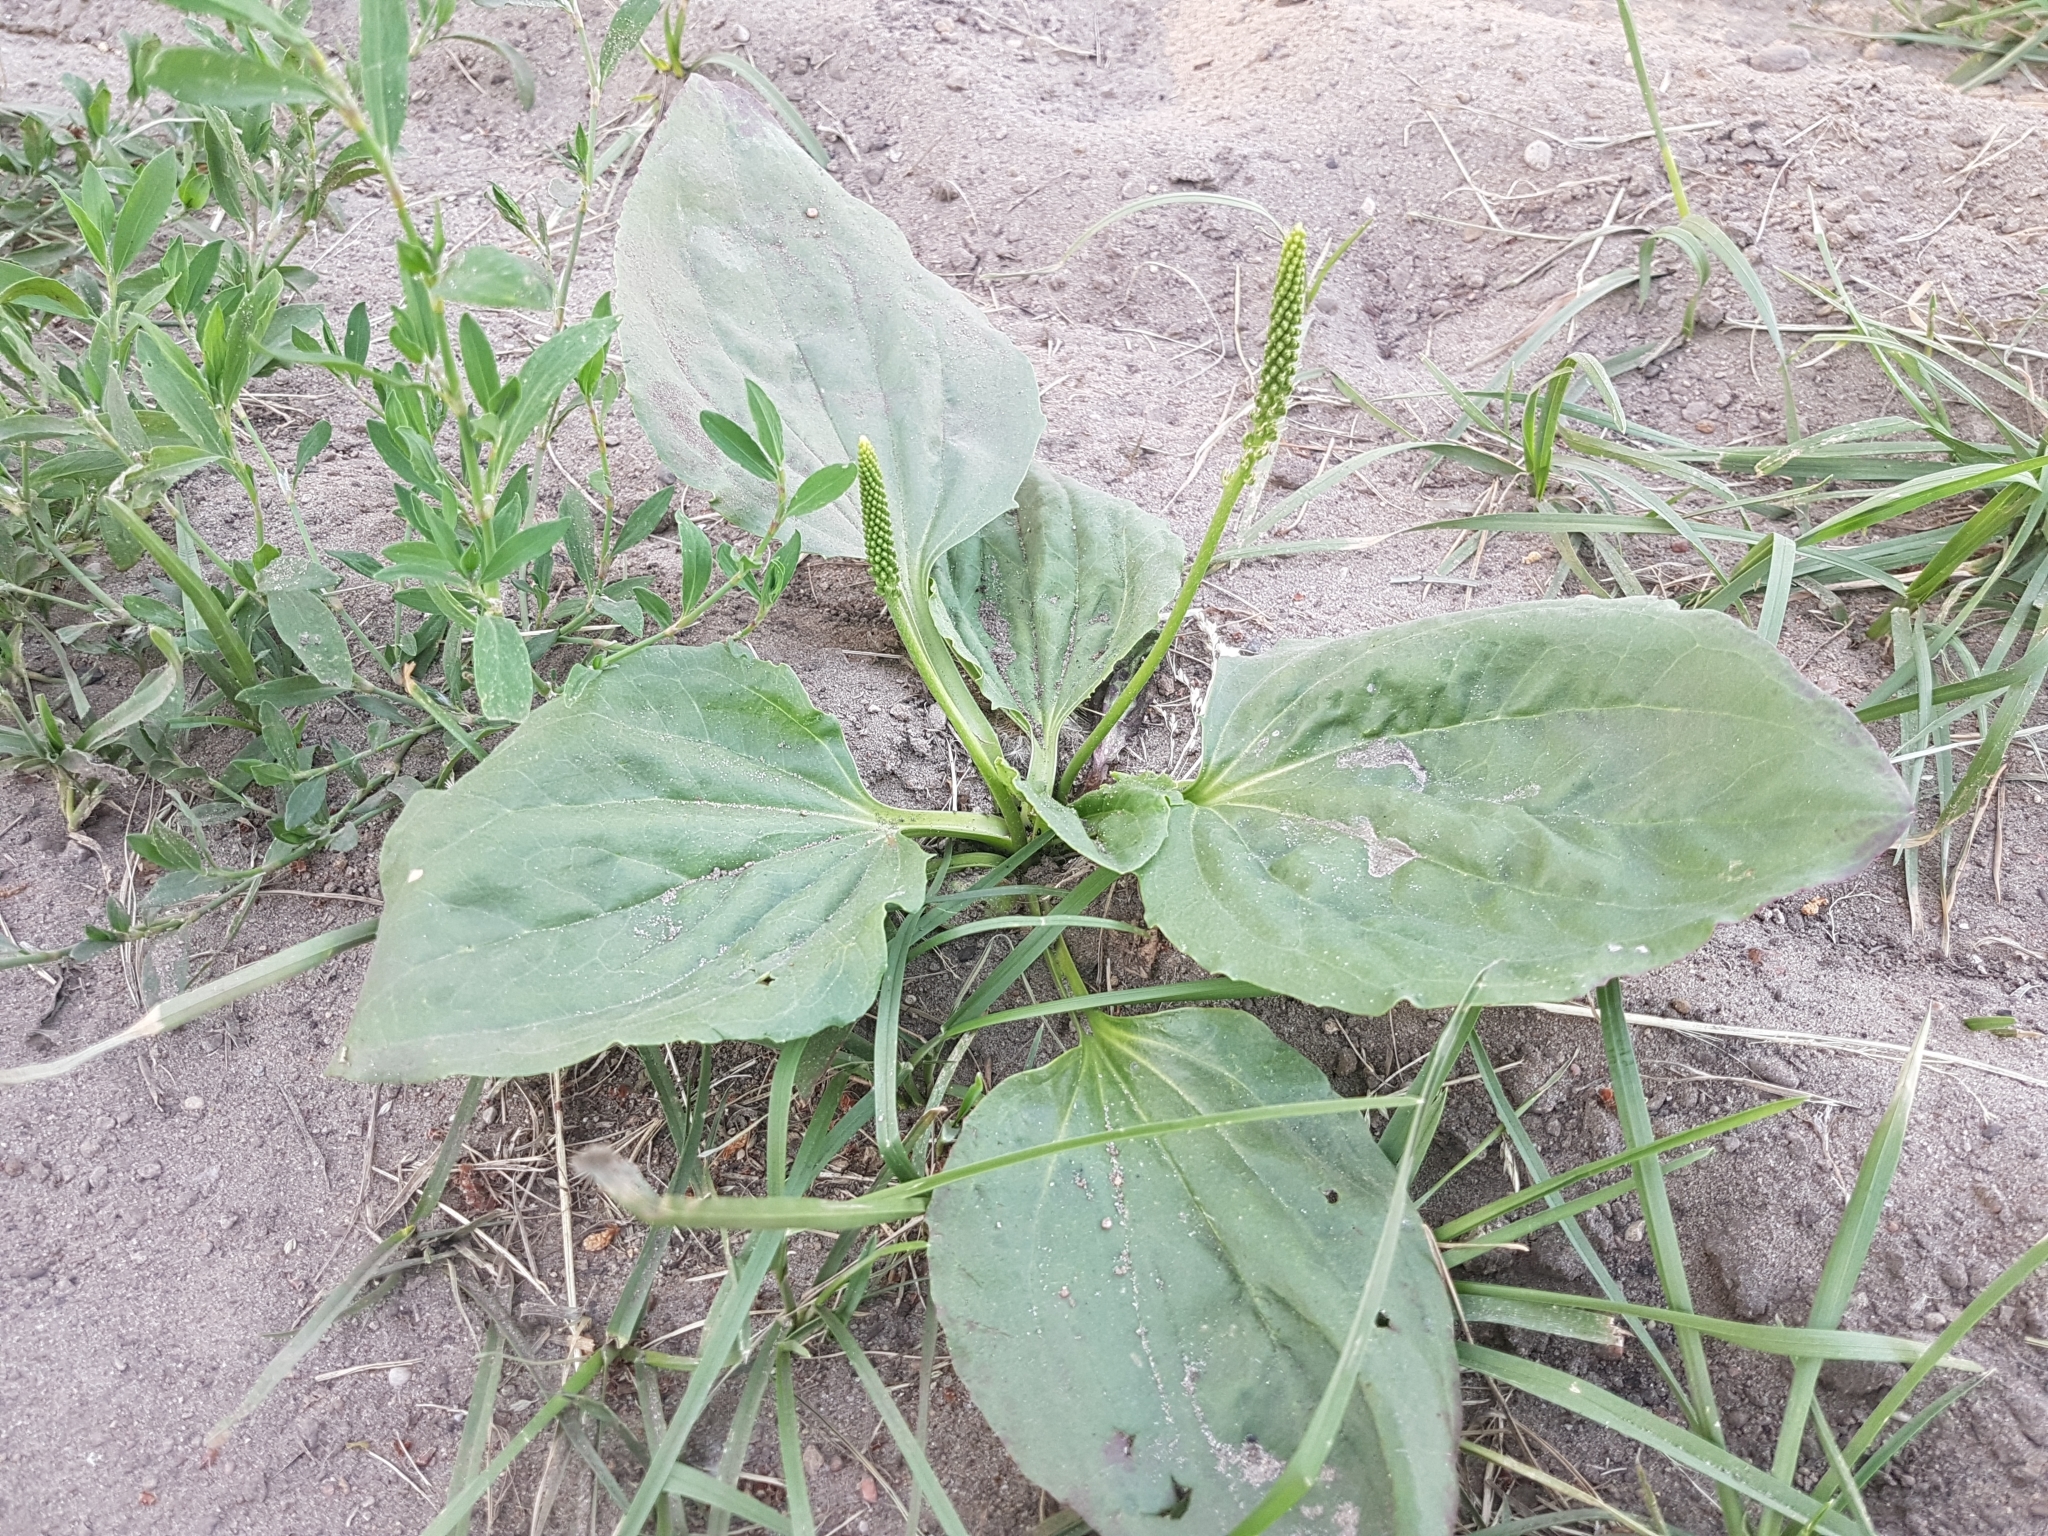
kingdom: Plantae
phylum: Tracheophyta
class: Magnoliopsida
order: Lamiales
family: Plantaginaceae
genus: Plantago
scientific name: Plantago major
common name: Common plantain
